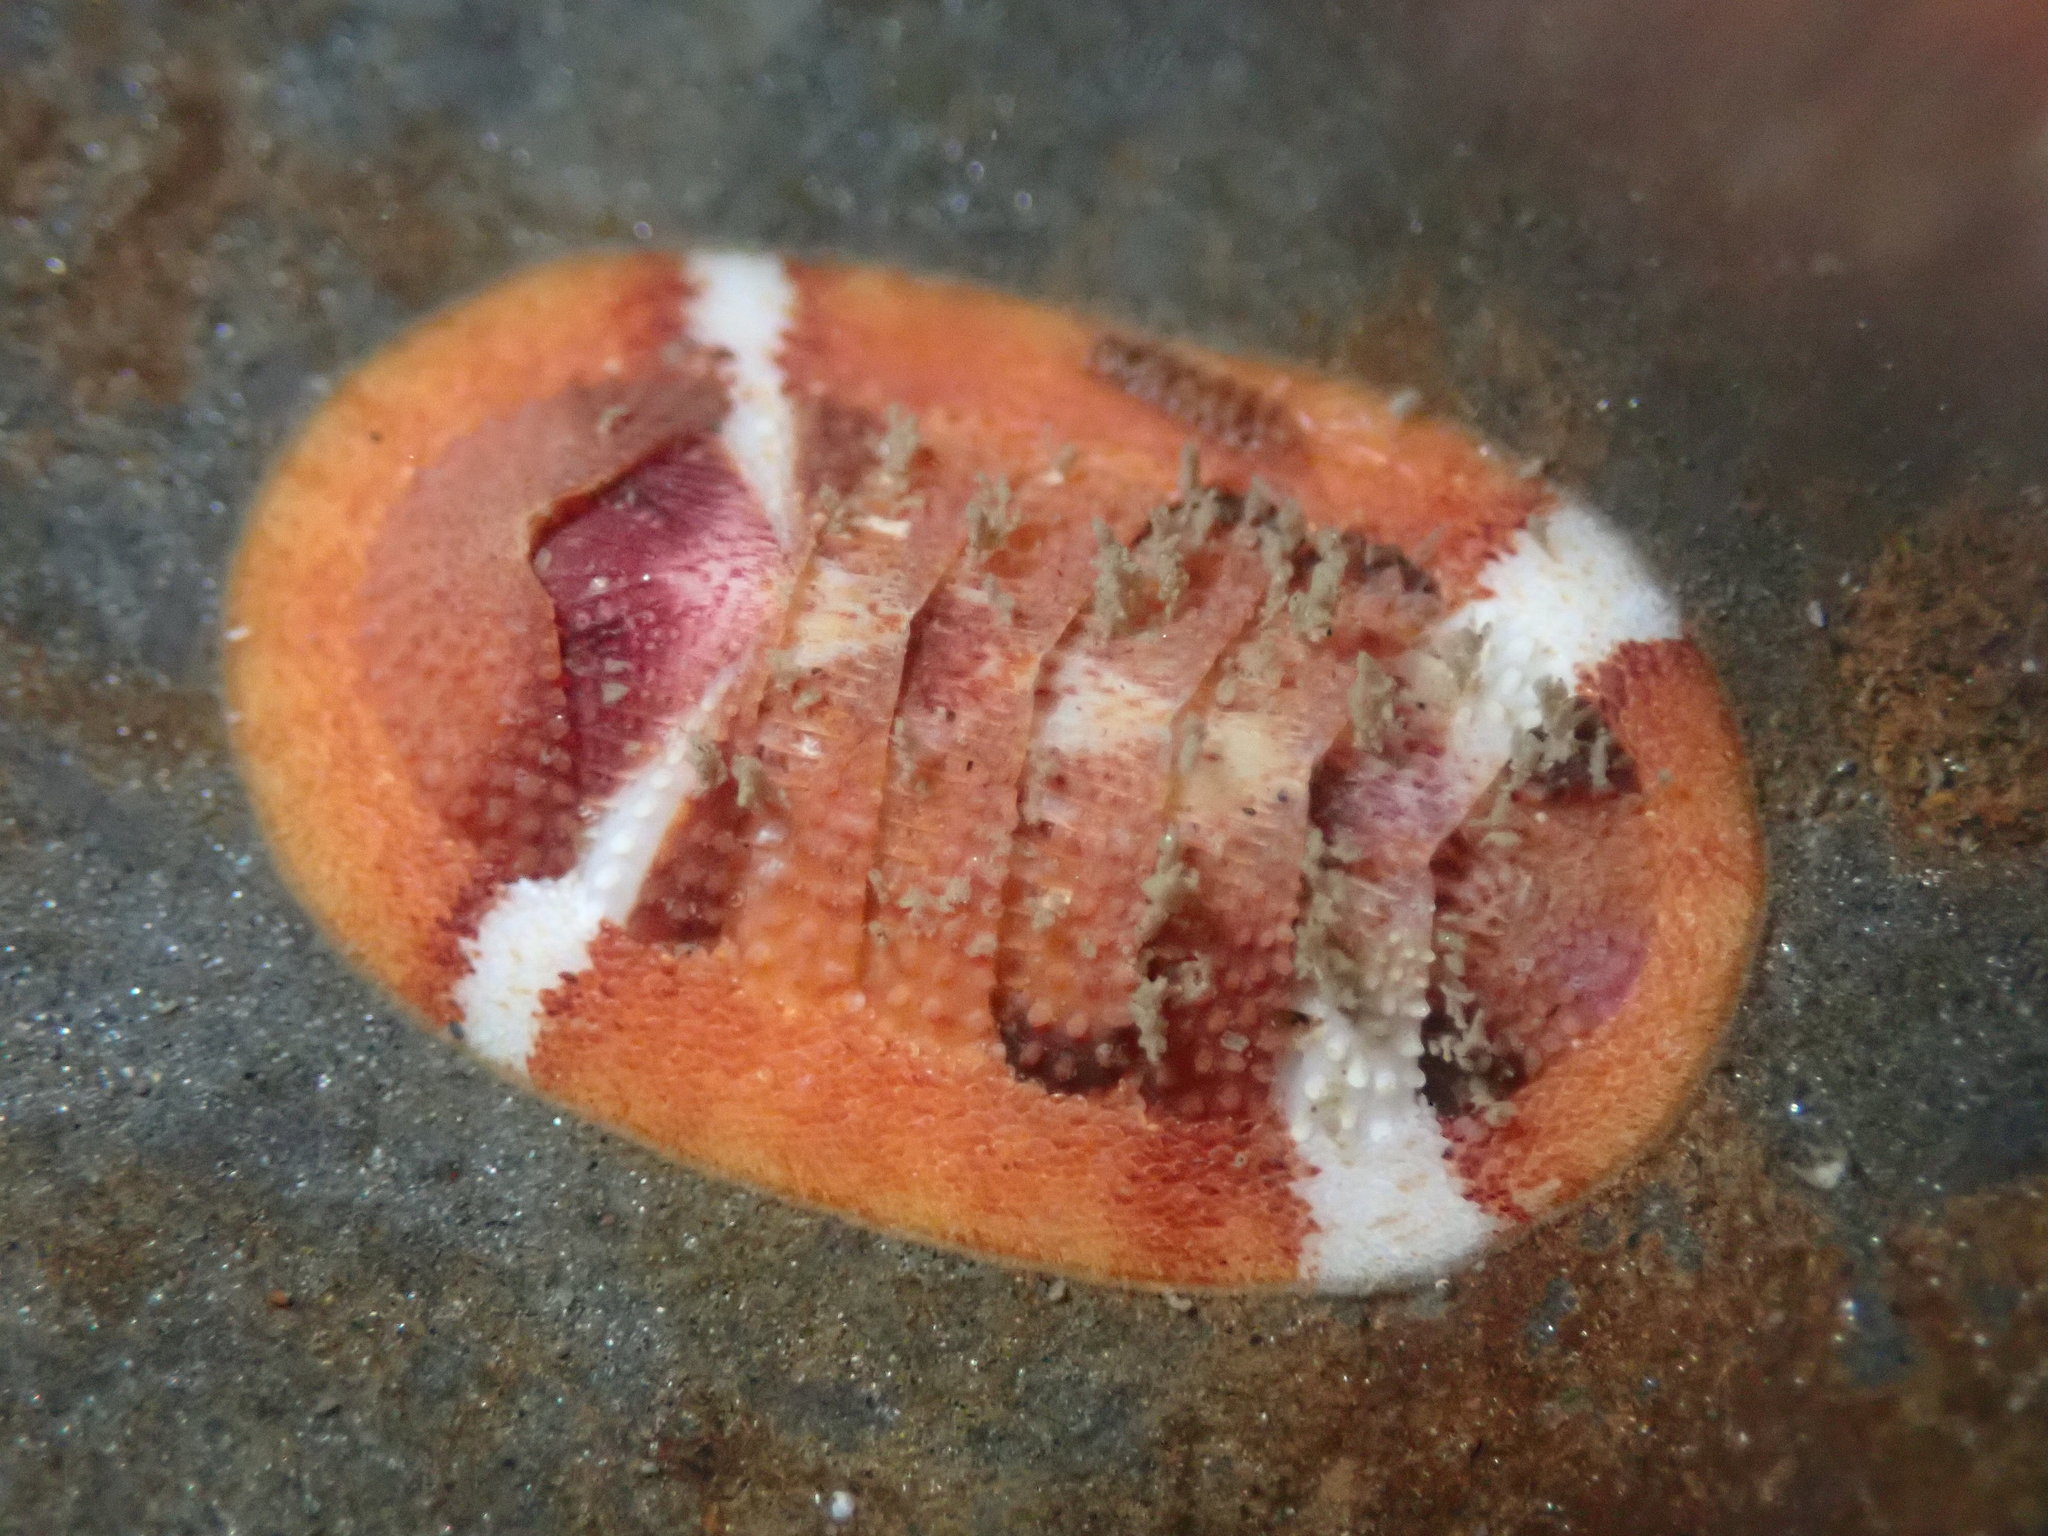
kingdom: Animalia
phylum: Mollusca
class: Polyplacophora
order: Chitonida
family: Ischnochitonidae
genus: Lepidozona
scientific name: Lepidozona mertensii
